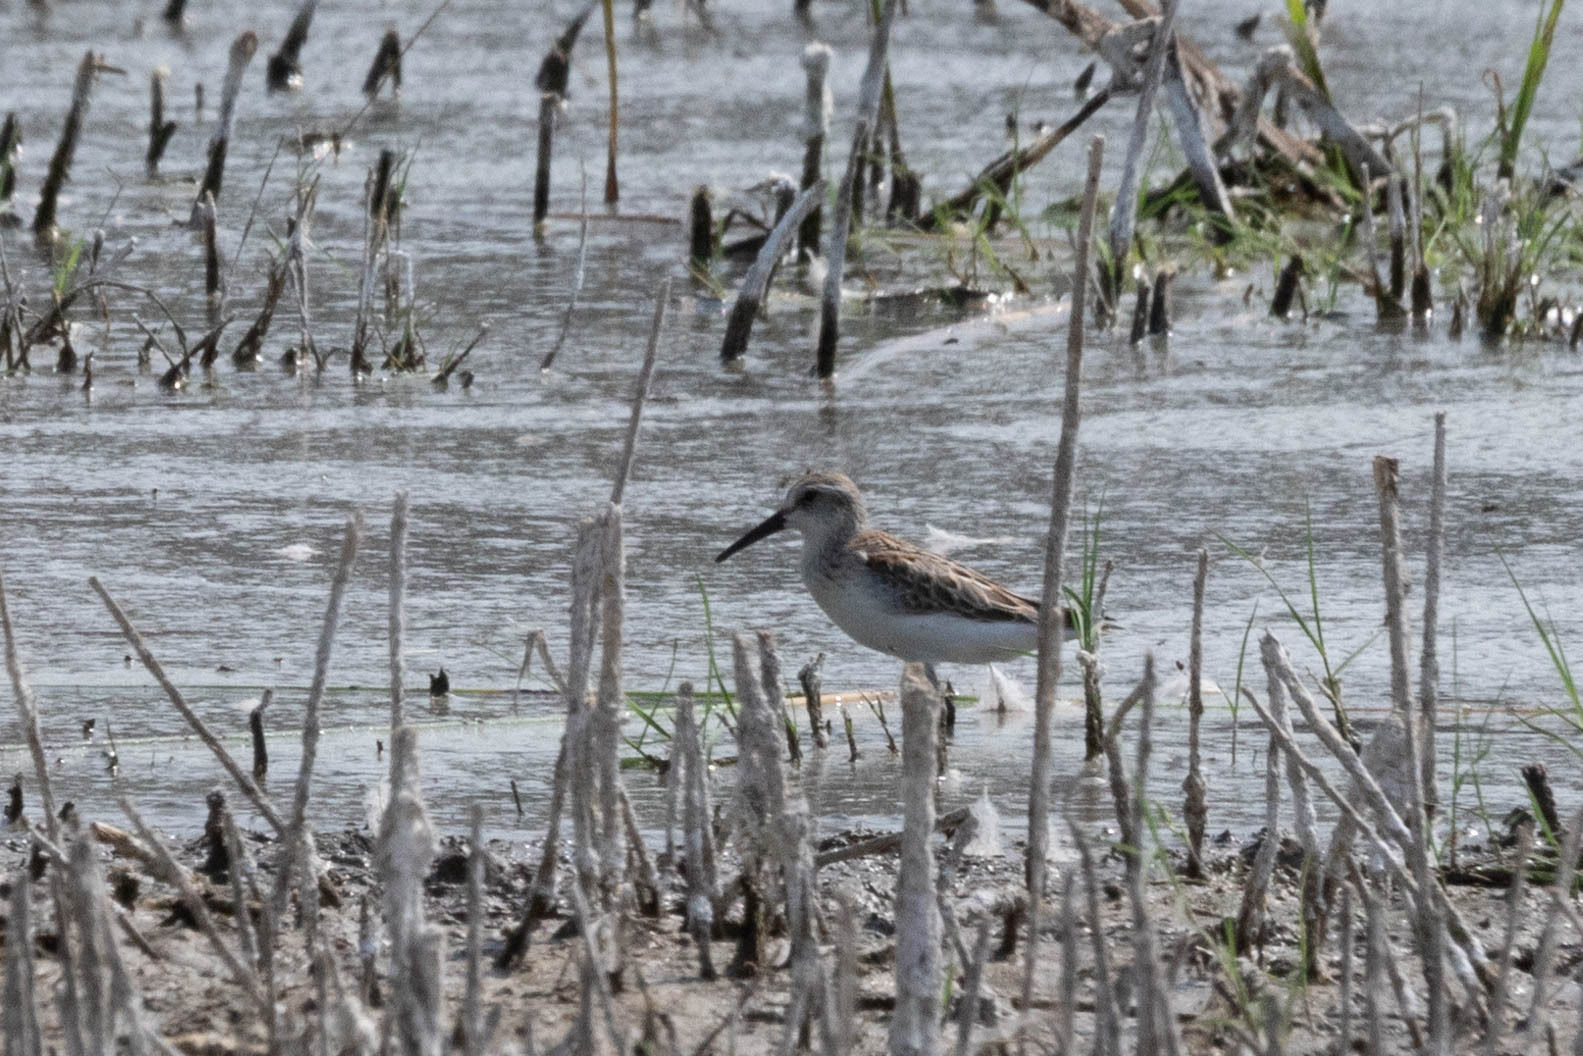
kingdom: Animalia
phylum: Chordata
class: Aves
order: Charadriiformes
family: Scolopacidae
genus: Calidris
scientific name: Calidris mauri
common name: Western sandpiper
